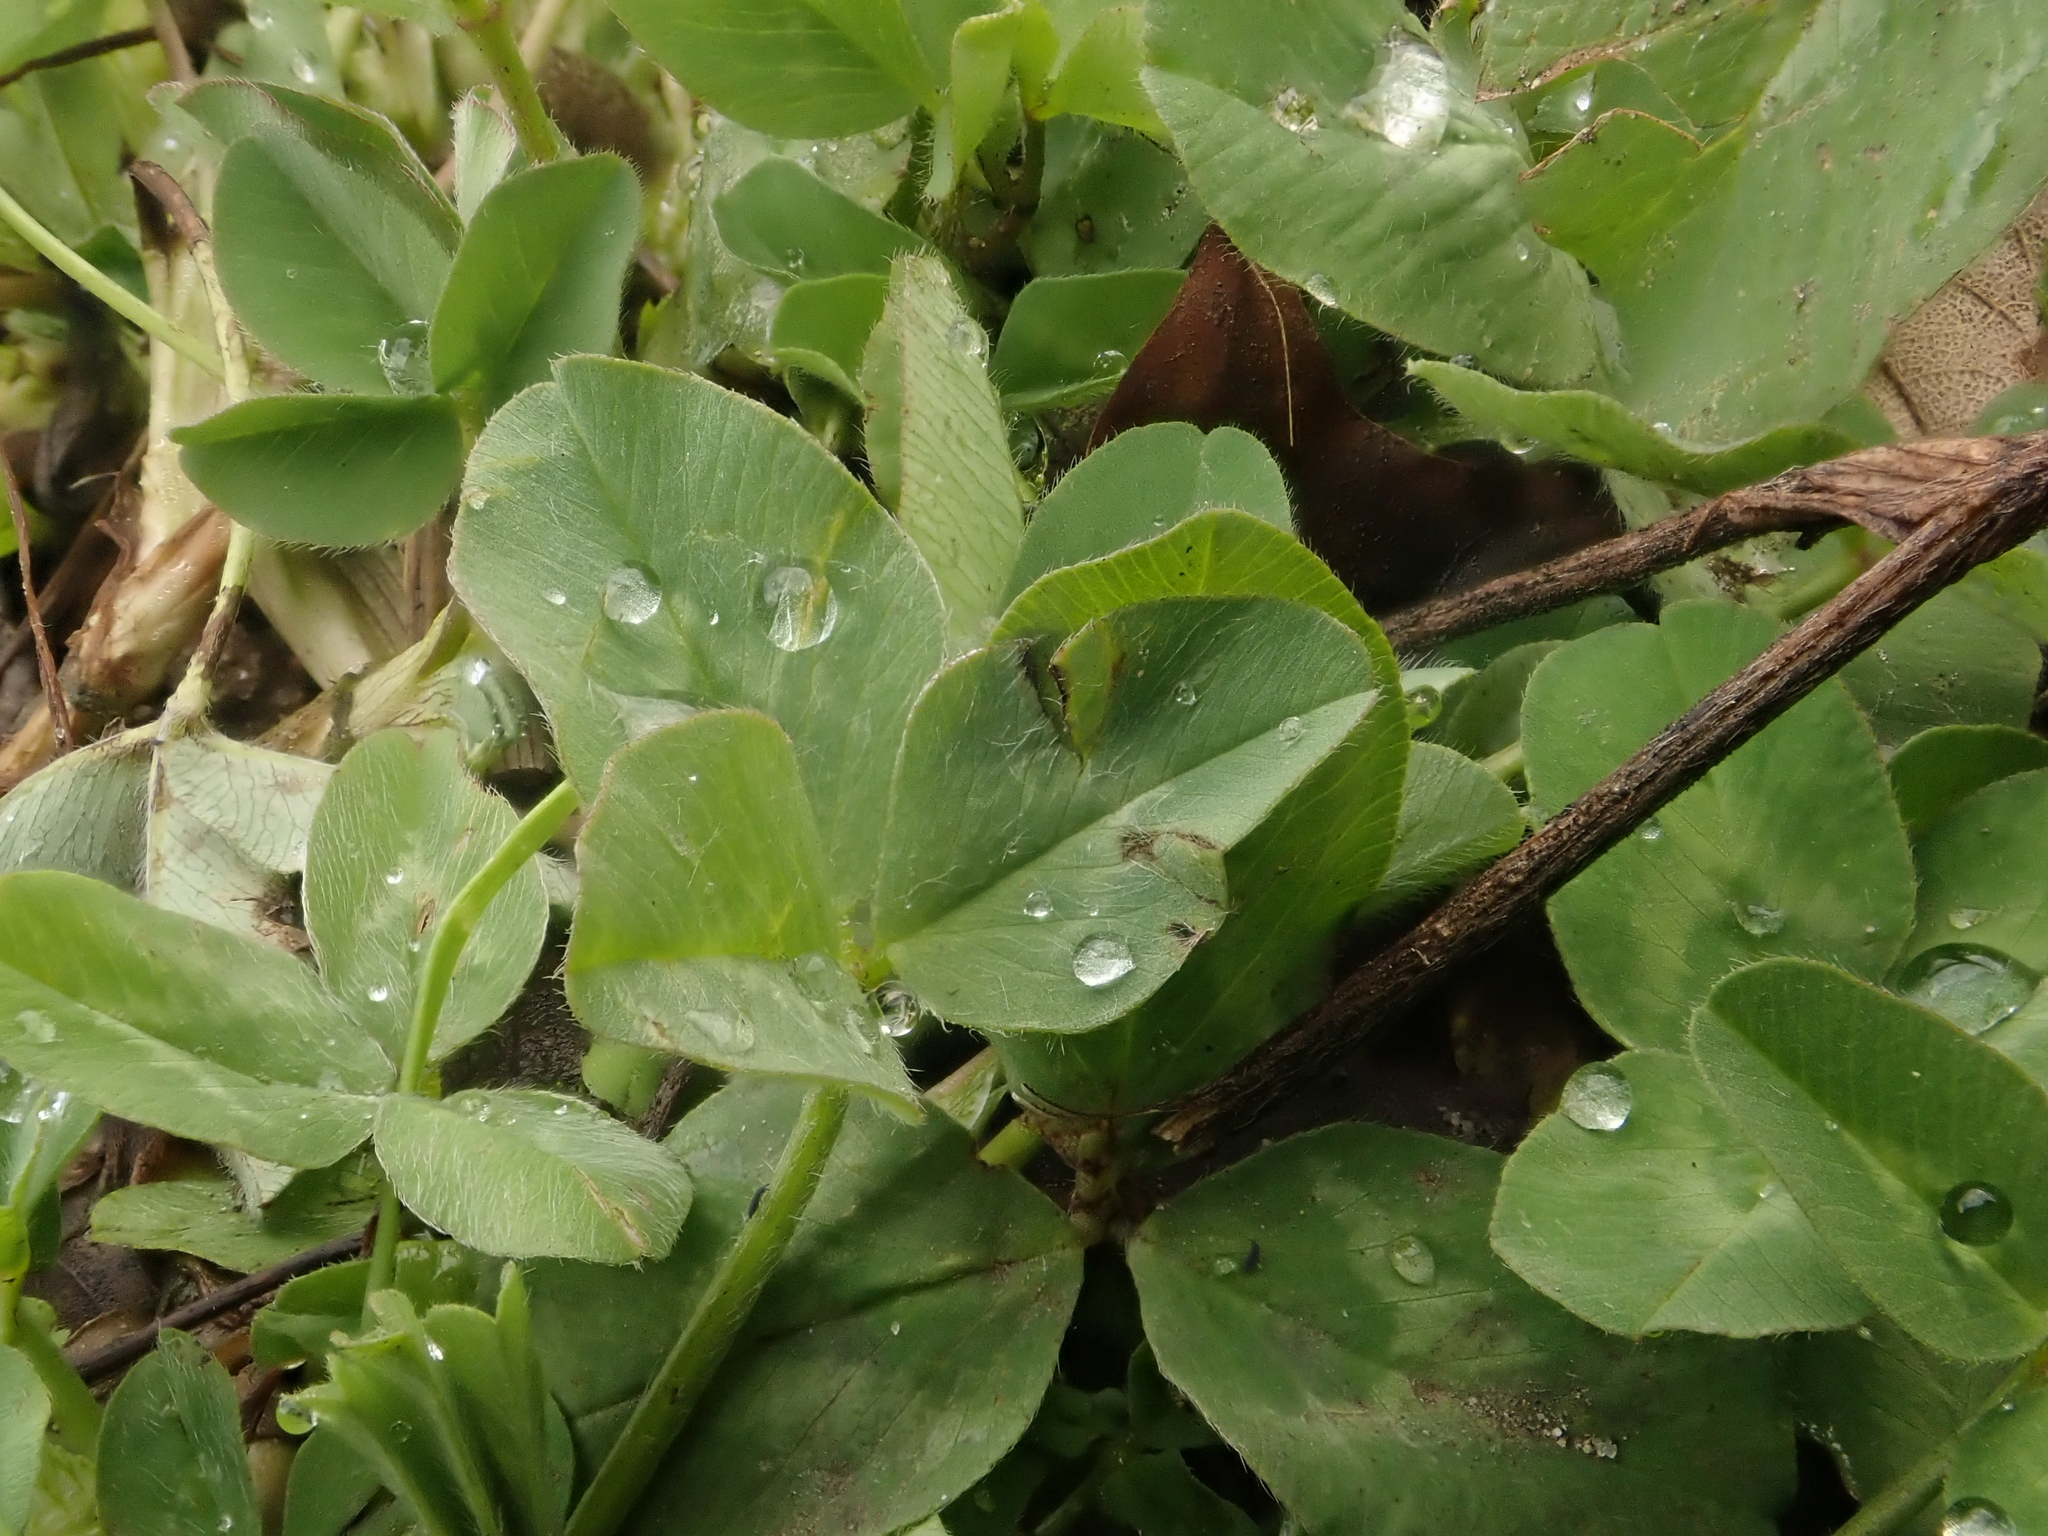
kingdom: Plantae
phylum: Tracheophyta
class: Magnoliopsida
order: Fabales
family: Fabaceae
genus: Trifolium
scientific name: Trifolium pratense
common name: Red clover
